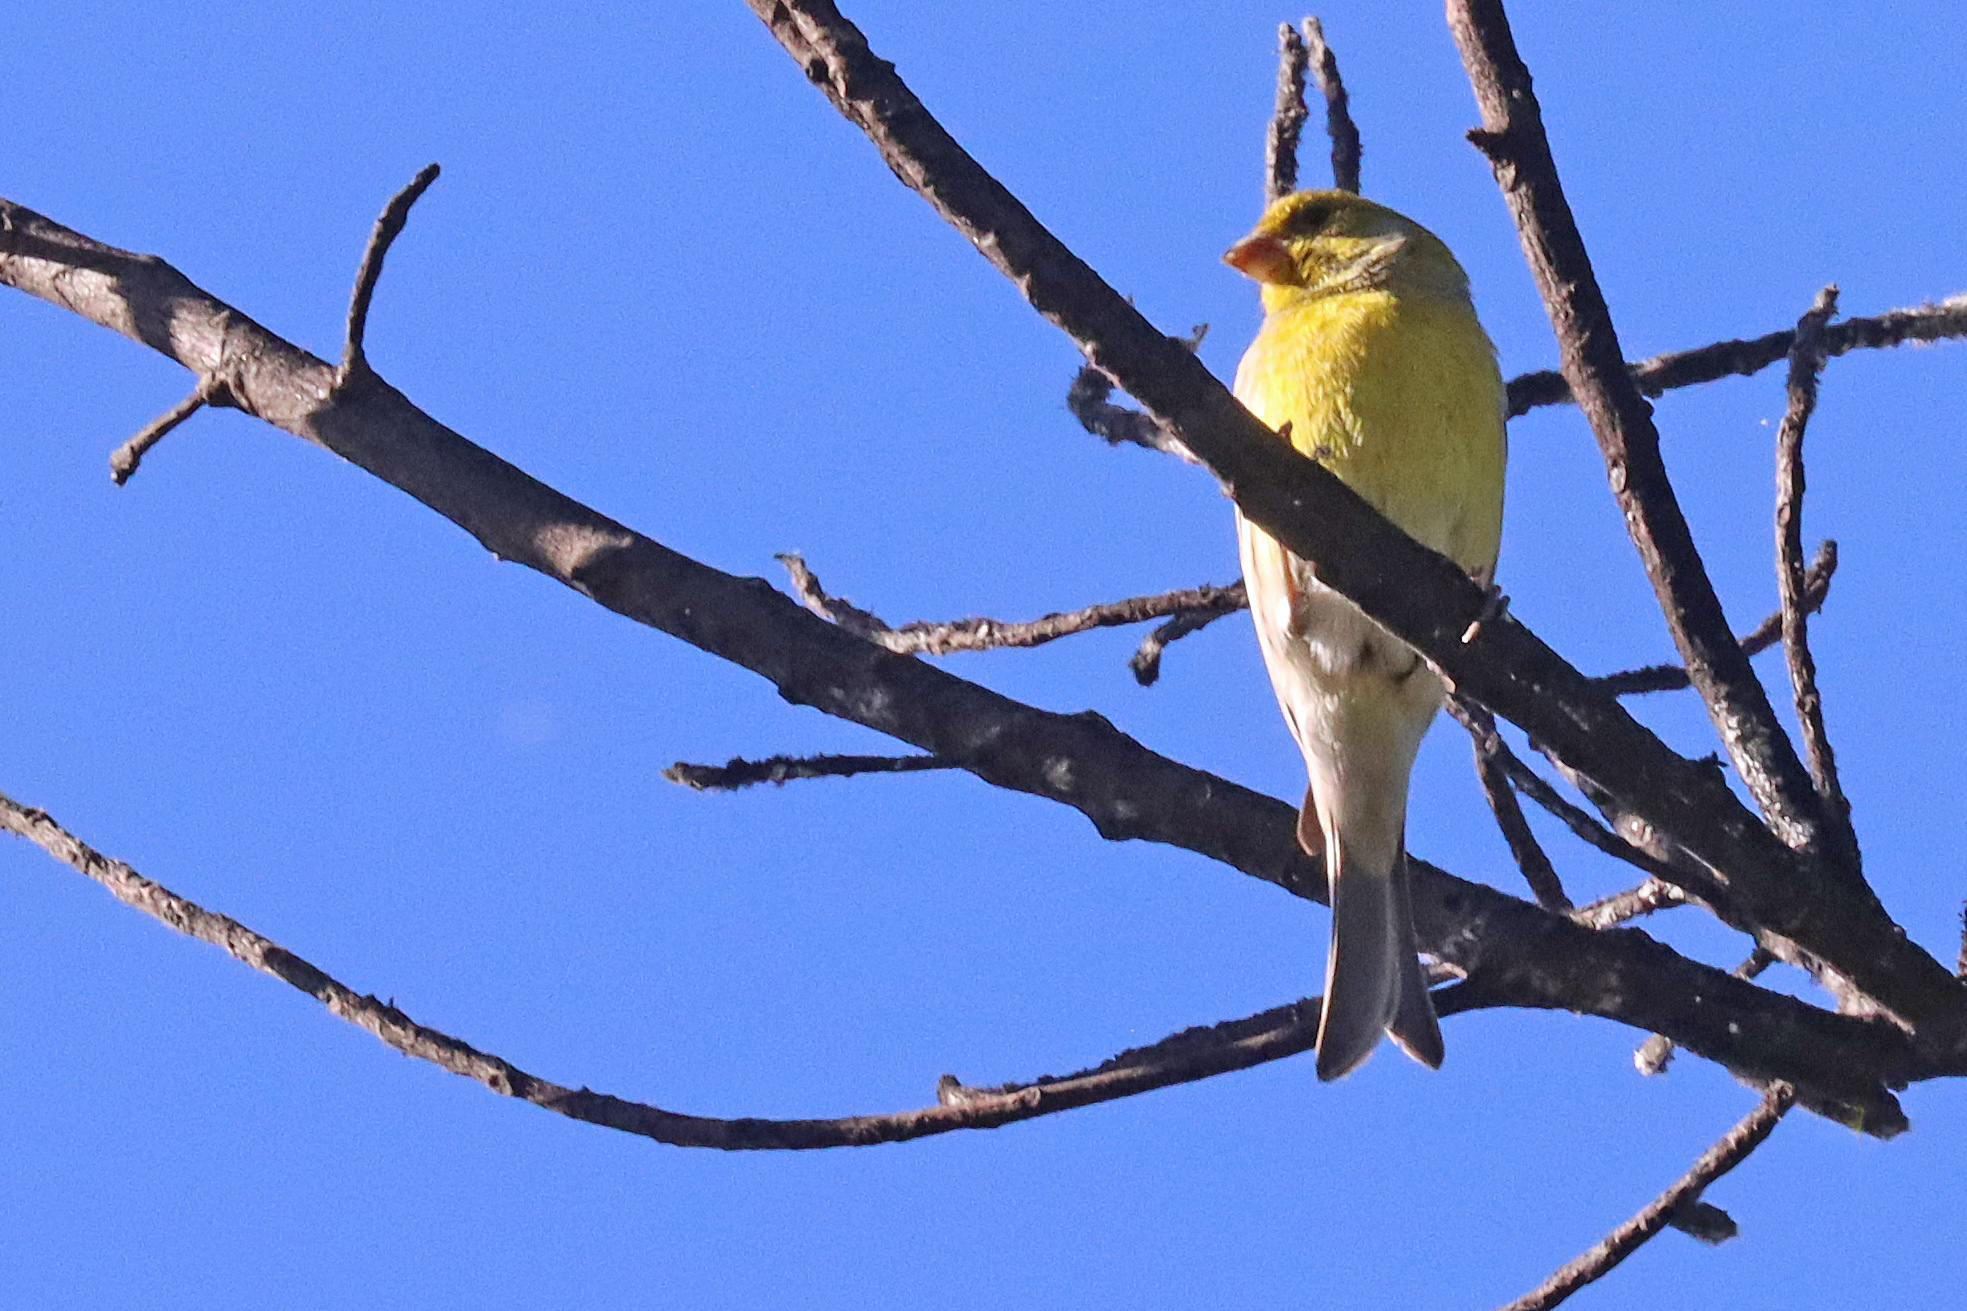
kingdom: Animalia
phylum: Chordata
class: Aves
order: Passeriformes
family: Fringillidae
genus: Serinus
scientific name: Serinus canaria
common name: Atlantic canary
